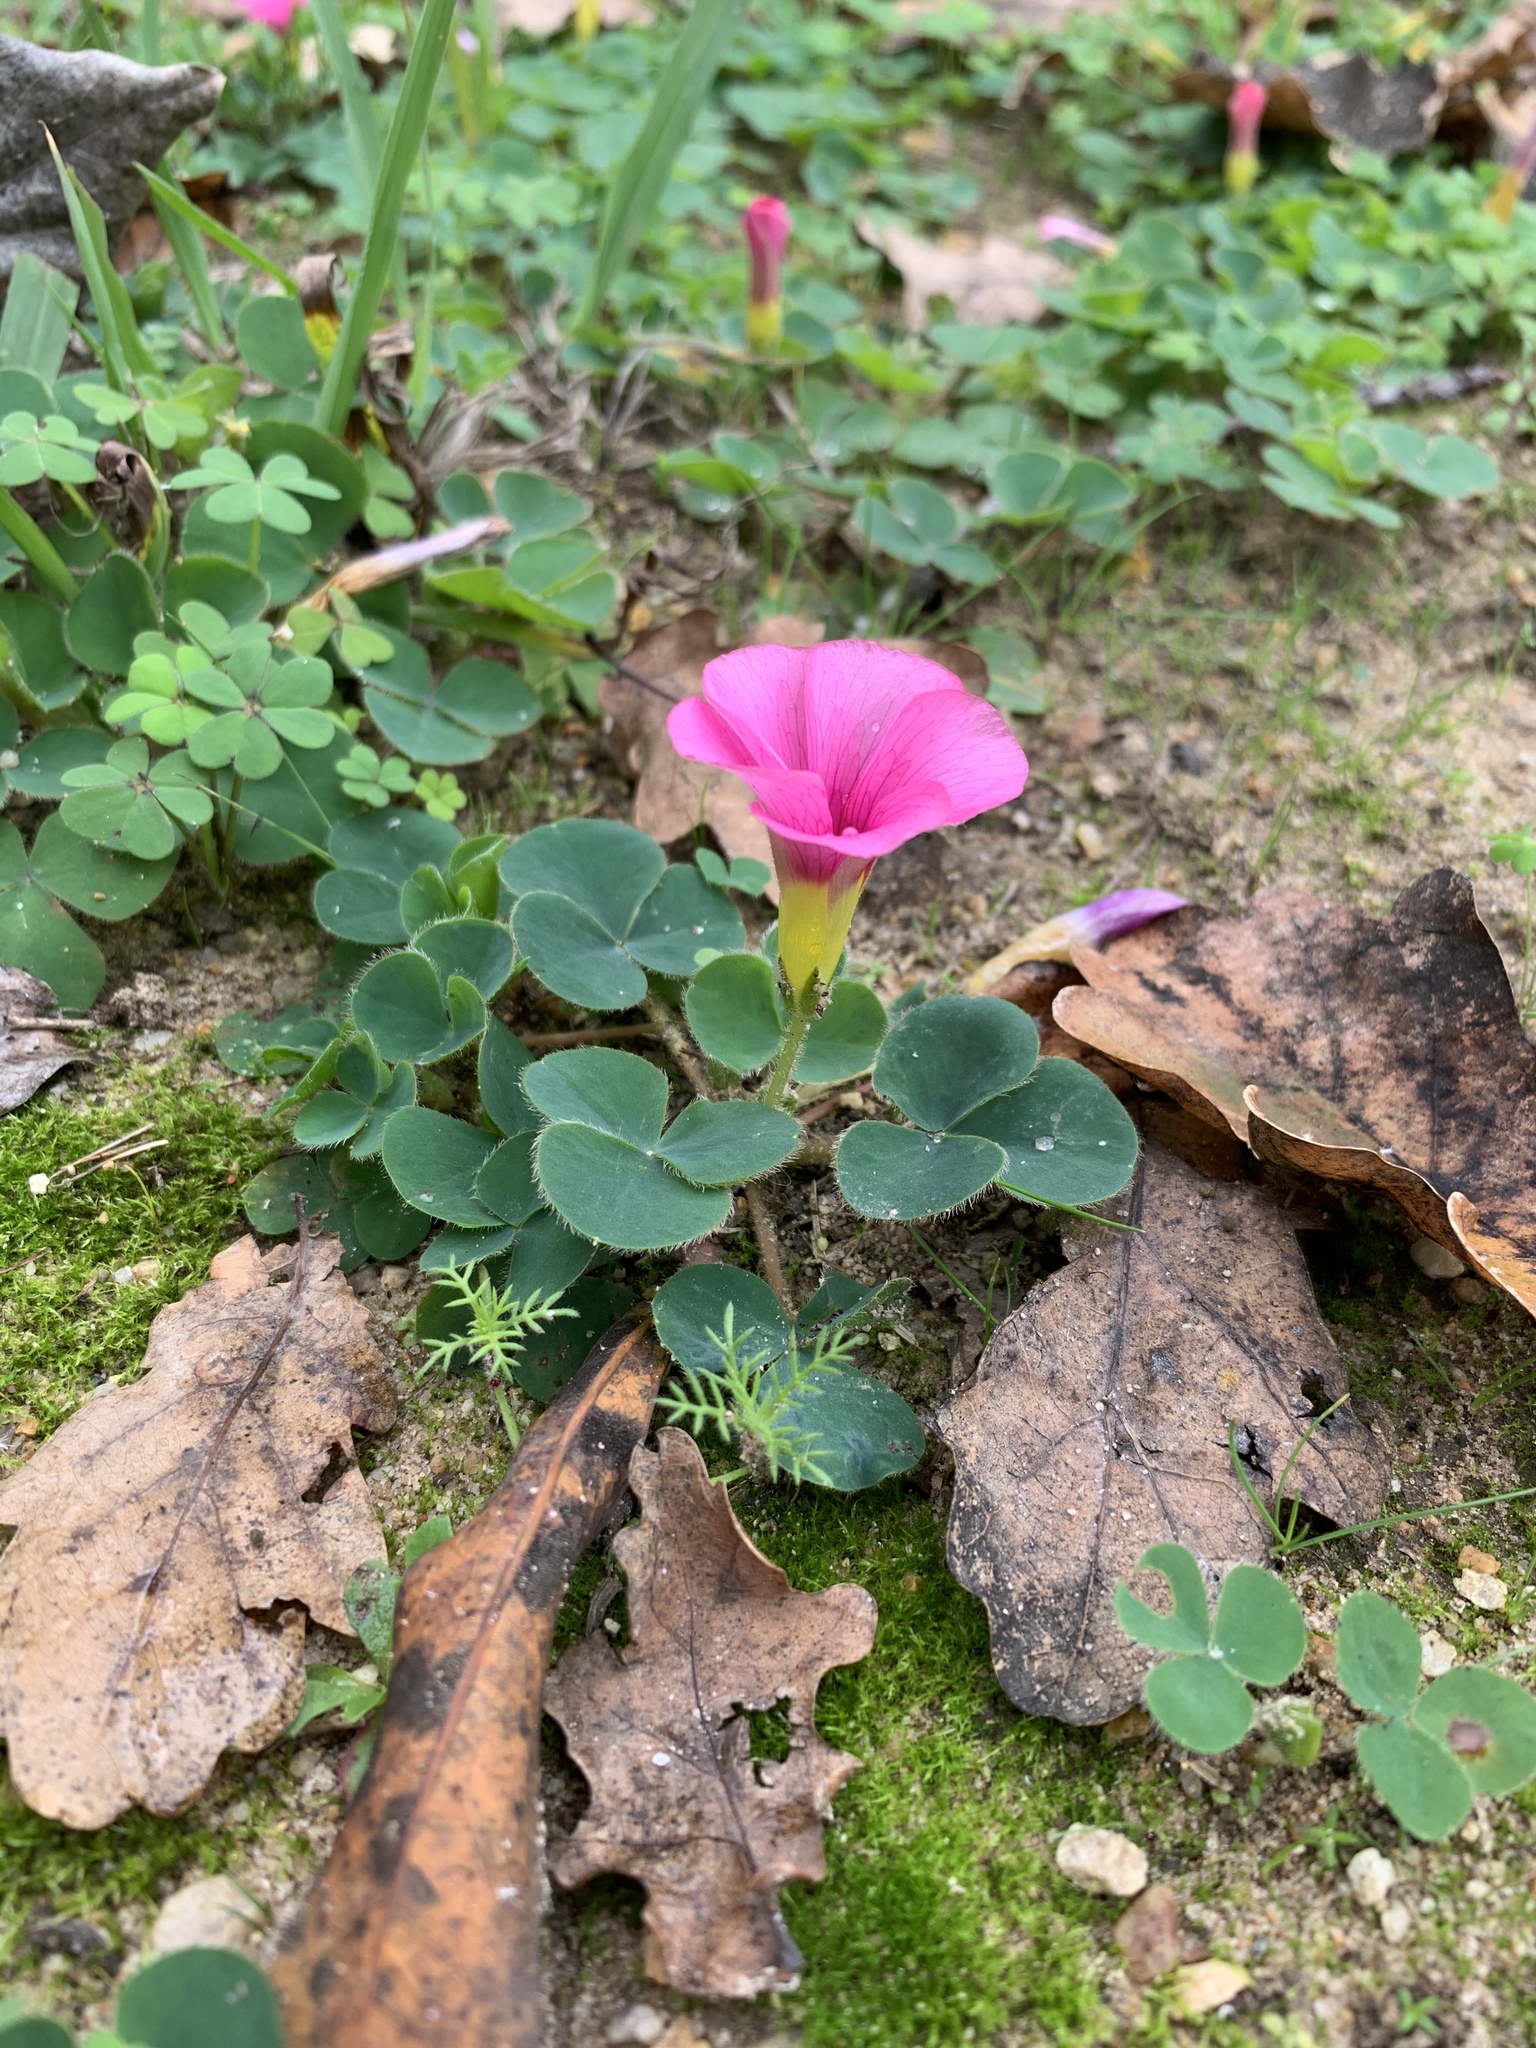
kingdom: Plantae
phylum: Tracheophyta
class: Magnoliopsida
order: Oxalidales
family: Oxalidaceae
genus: Oxalis
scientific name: Oxalis purpurea
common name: Purple woodsorrel
